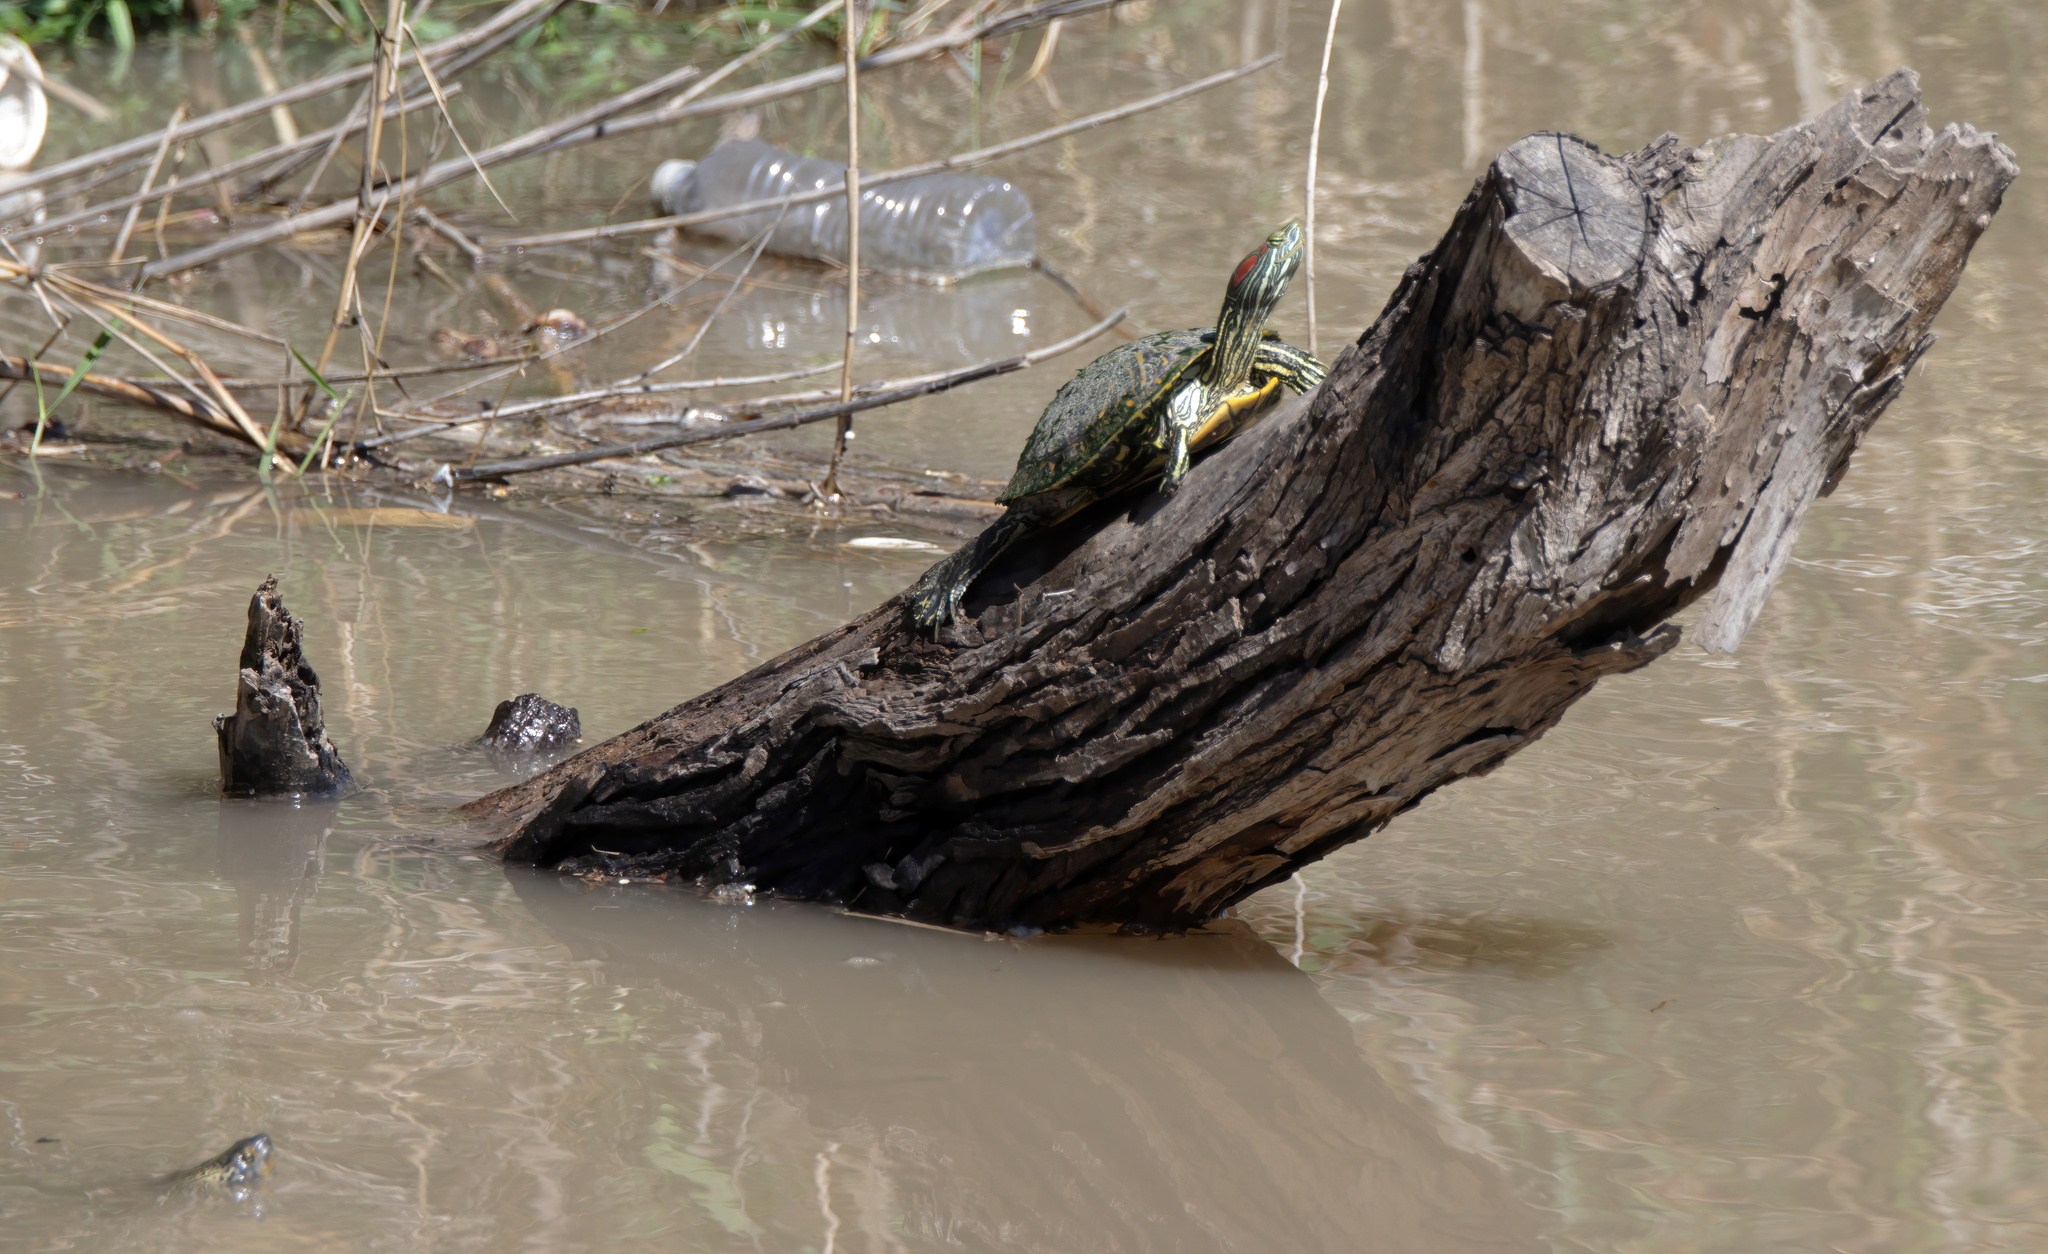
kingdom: Animalia
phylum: Chordata
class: Testudines
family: Emydidae
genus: Trachemys
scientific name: Trachemys scripta
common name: Slider
